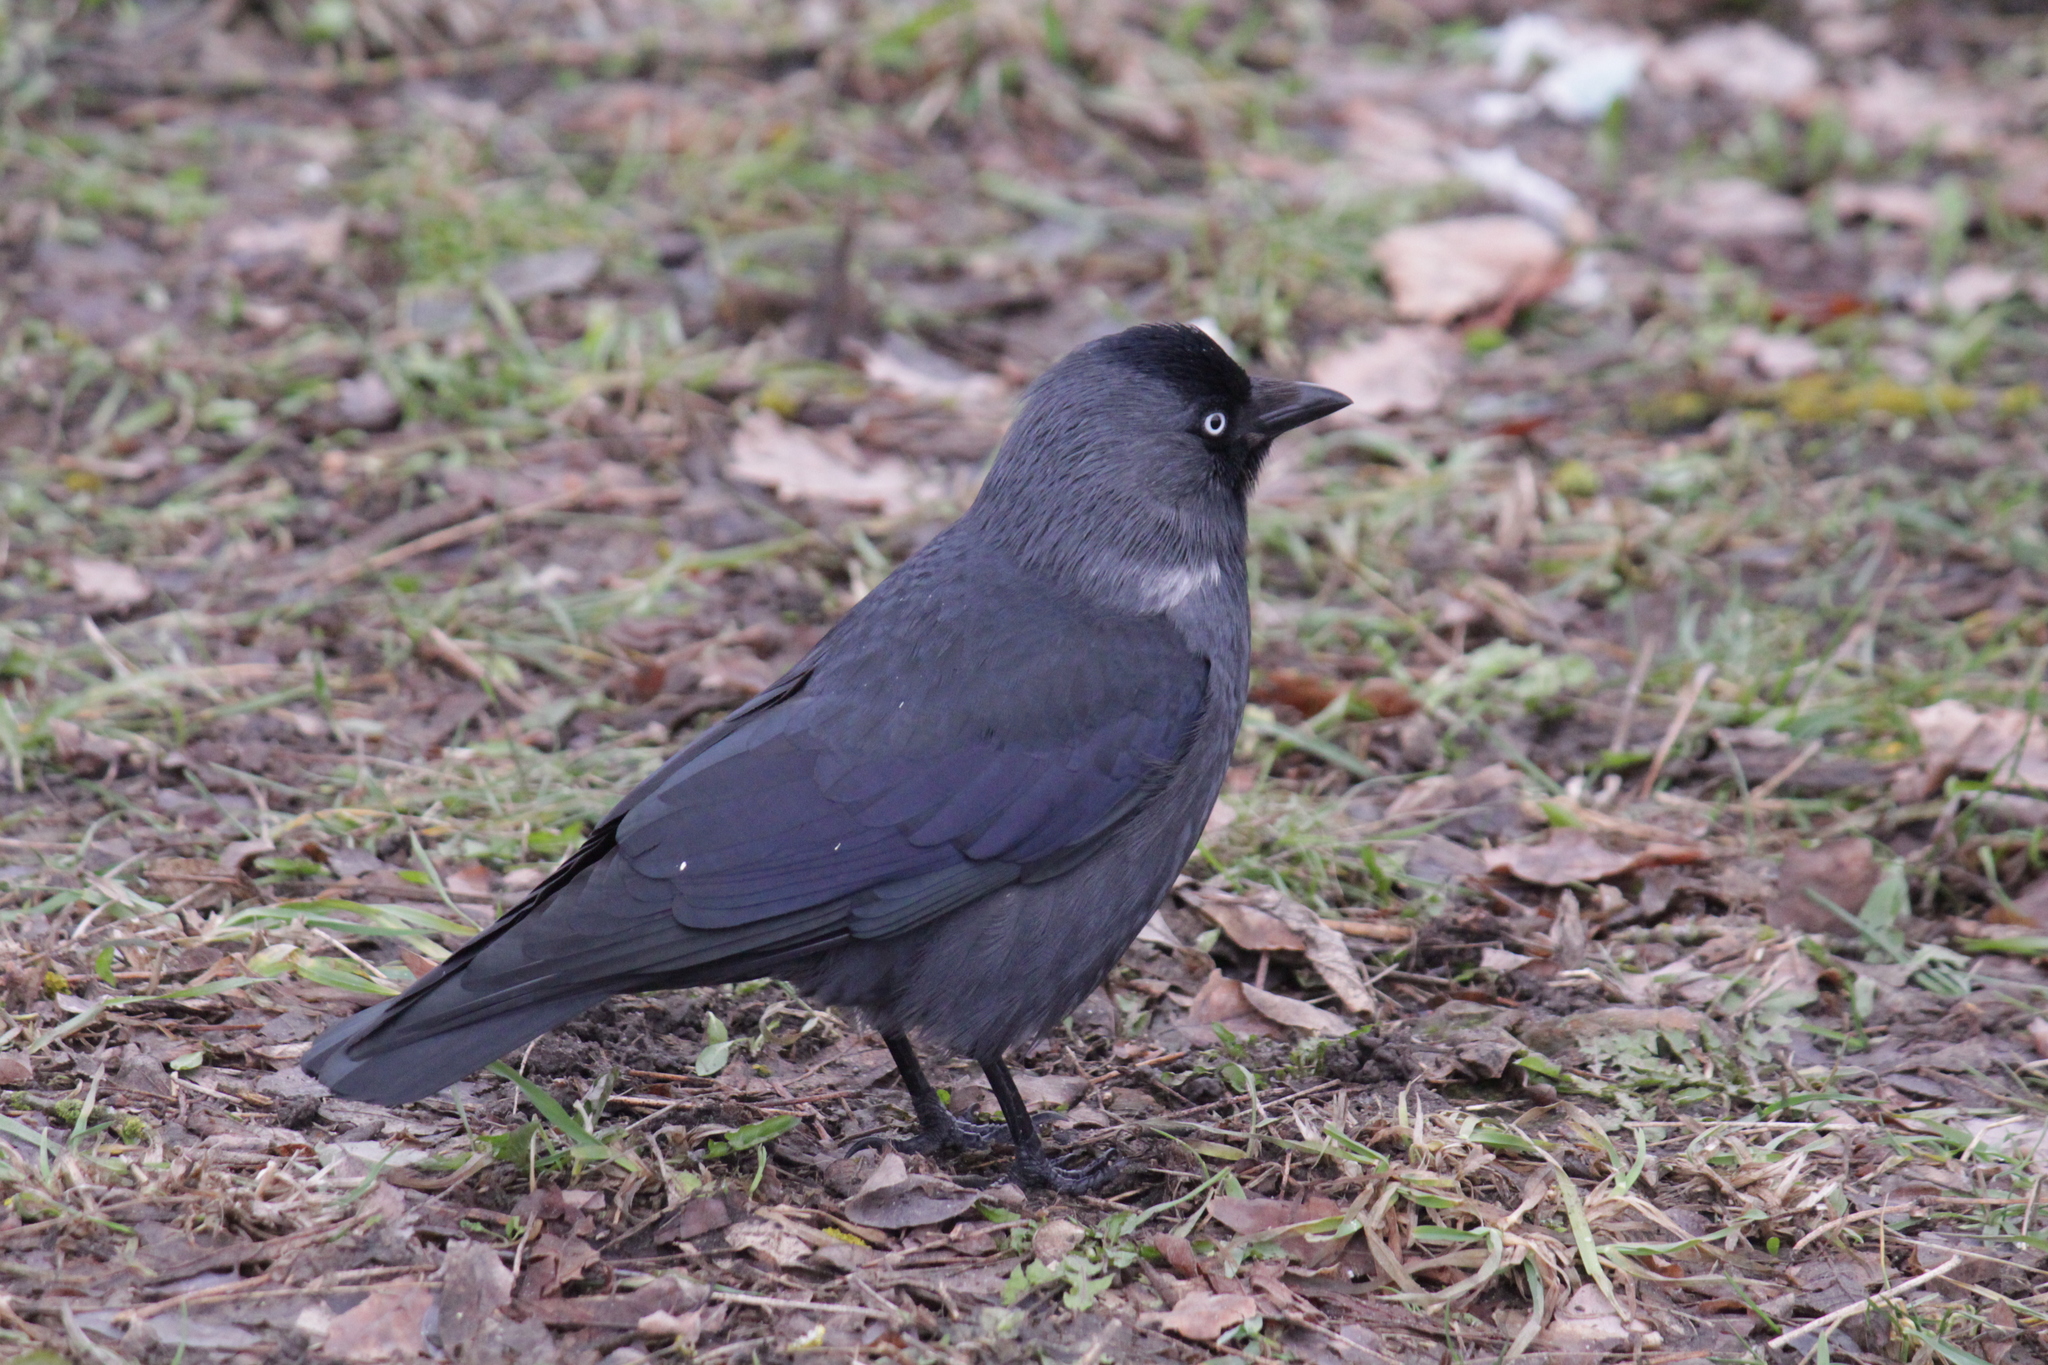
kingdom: Animalia
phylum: Chordata
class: Aves
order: Passeriformes
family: Corvidae
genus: Coloeus
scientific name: Coloeus monedula
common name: Western jackdaw
